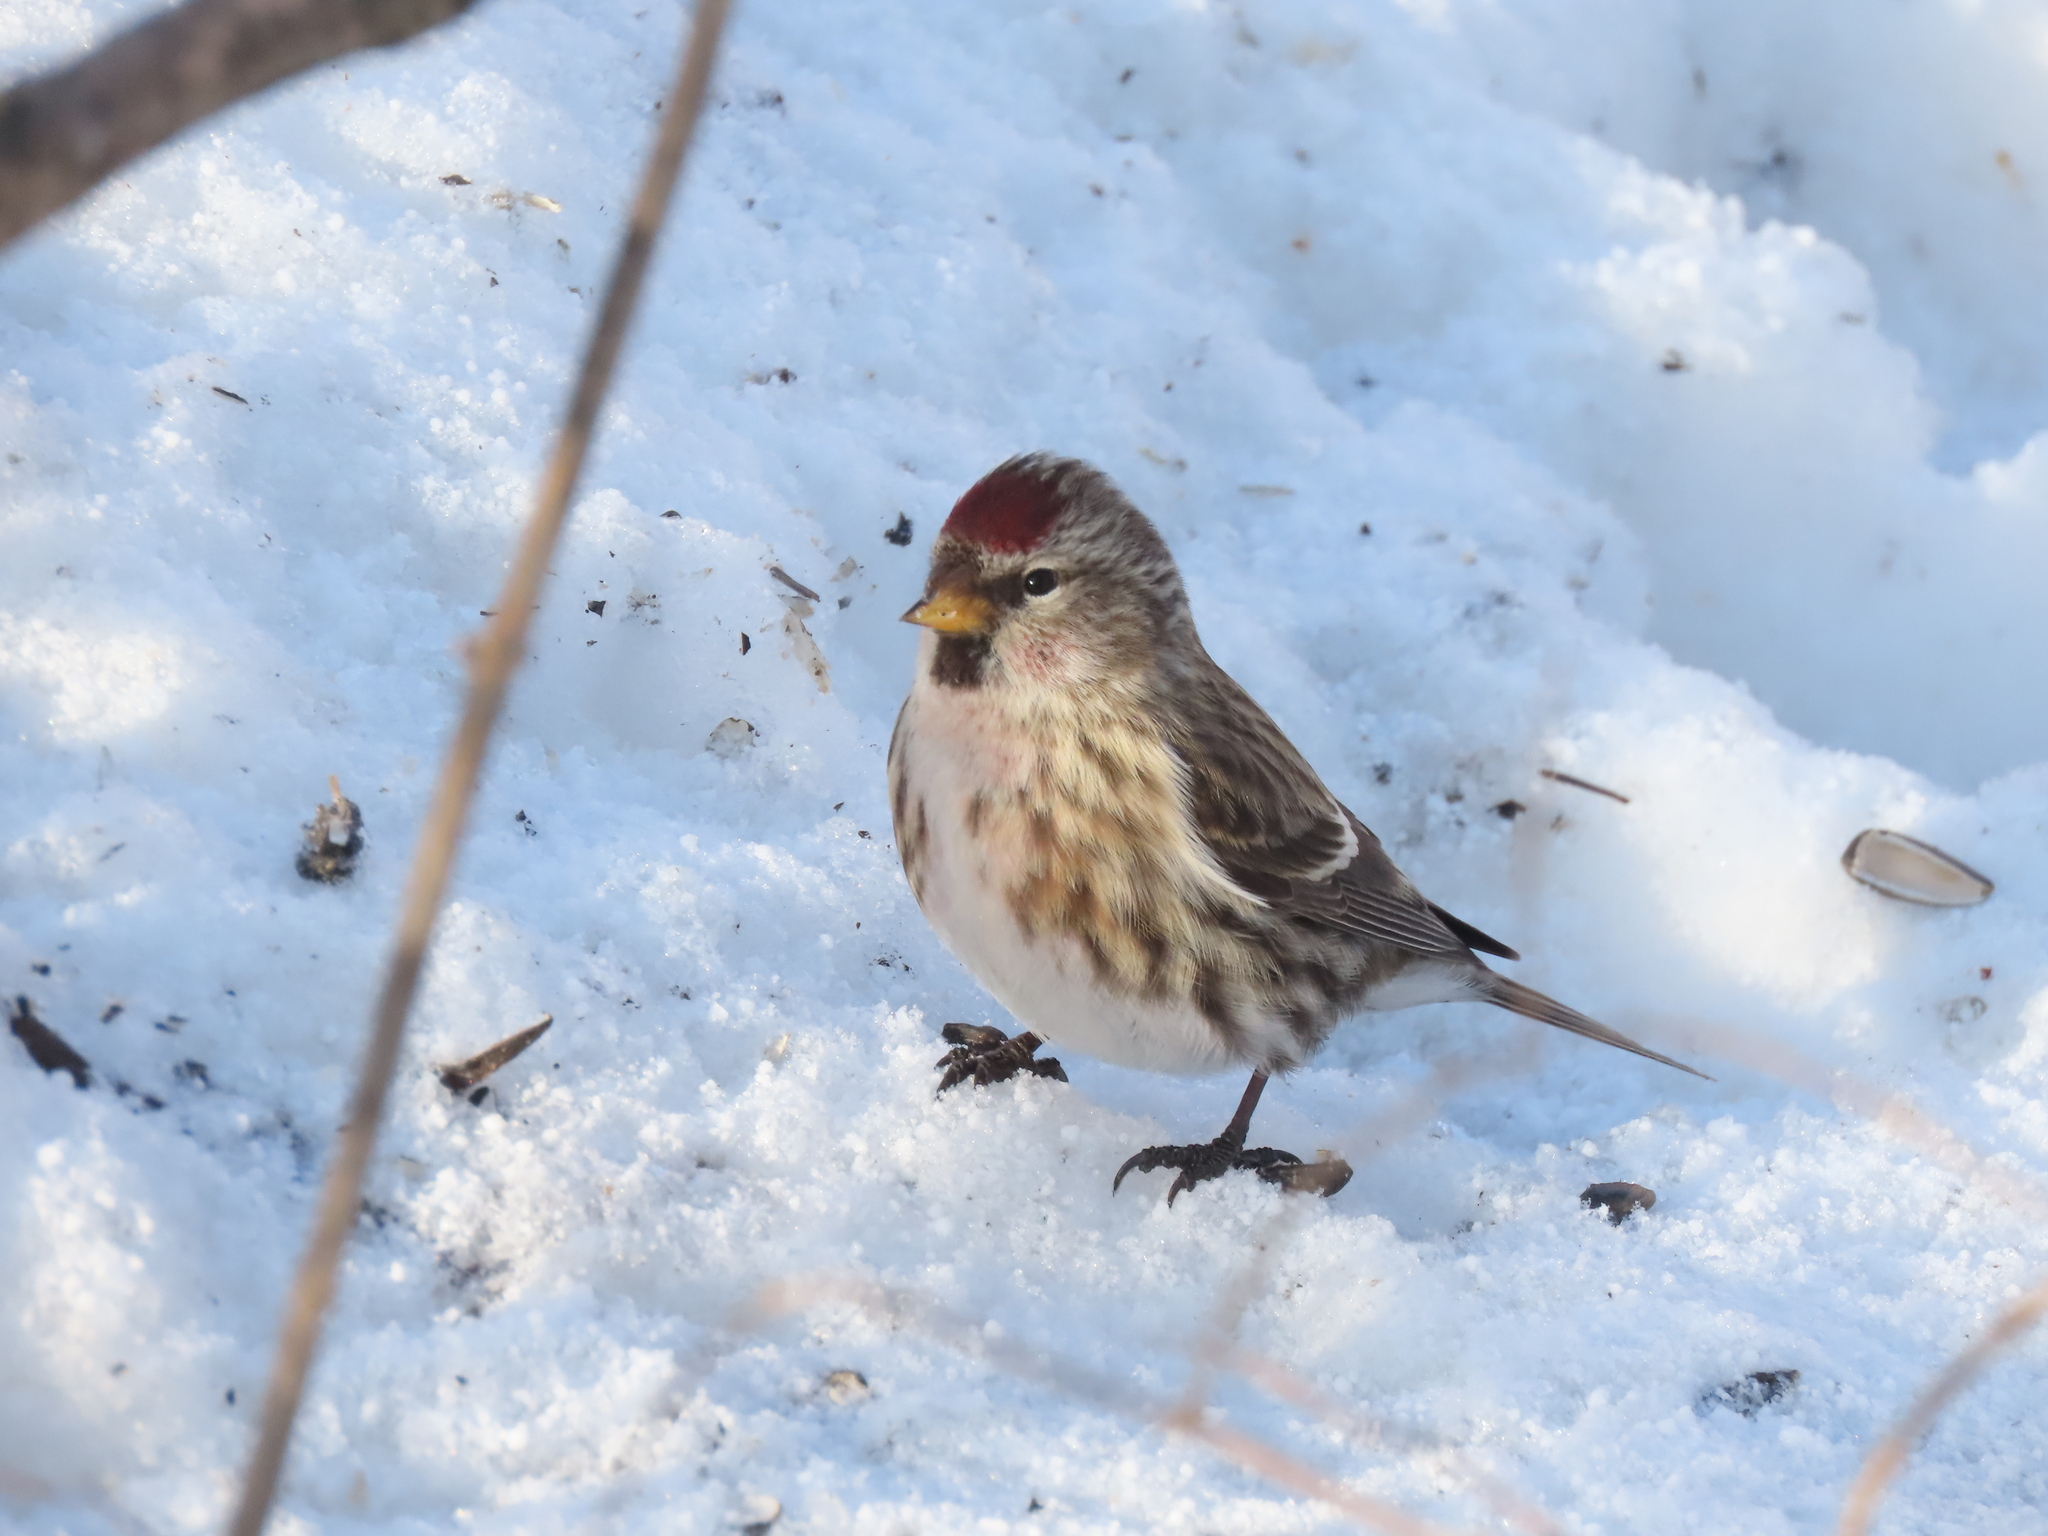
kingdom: Animalia
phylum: Chordata
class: Aves
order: Passeriformes
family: Fringillidae
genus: Acanthis
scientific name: Acanthis flammea
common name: Common redpoll
